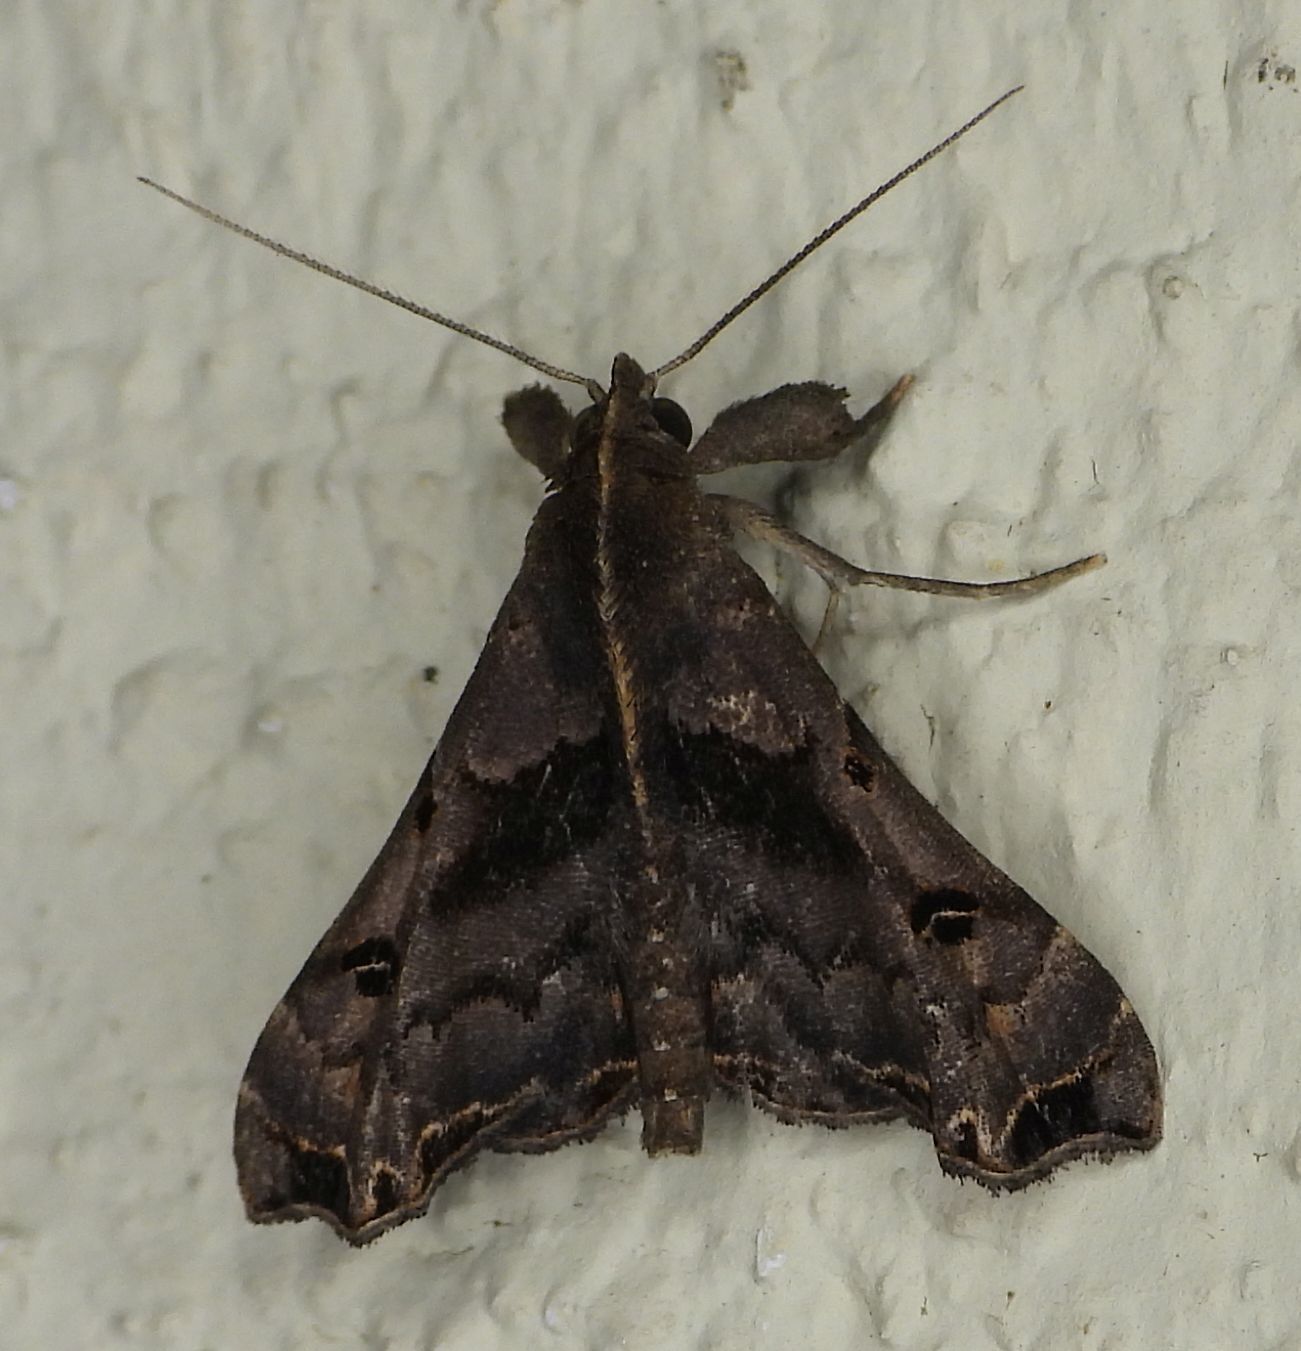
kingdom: Animalia
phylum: Arthropoda
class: Insecta
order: Lepidoptera
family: Erebidae
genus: Palthis
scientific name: Palthis asopialis
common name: Faint-spotted palthis moth
